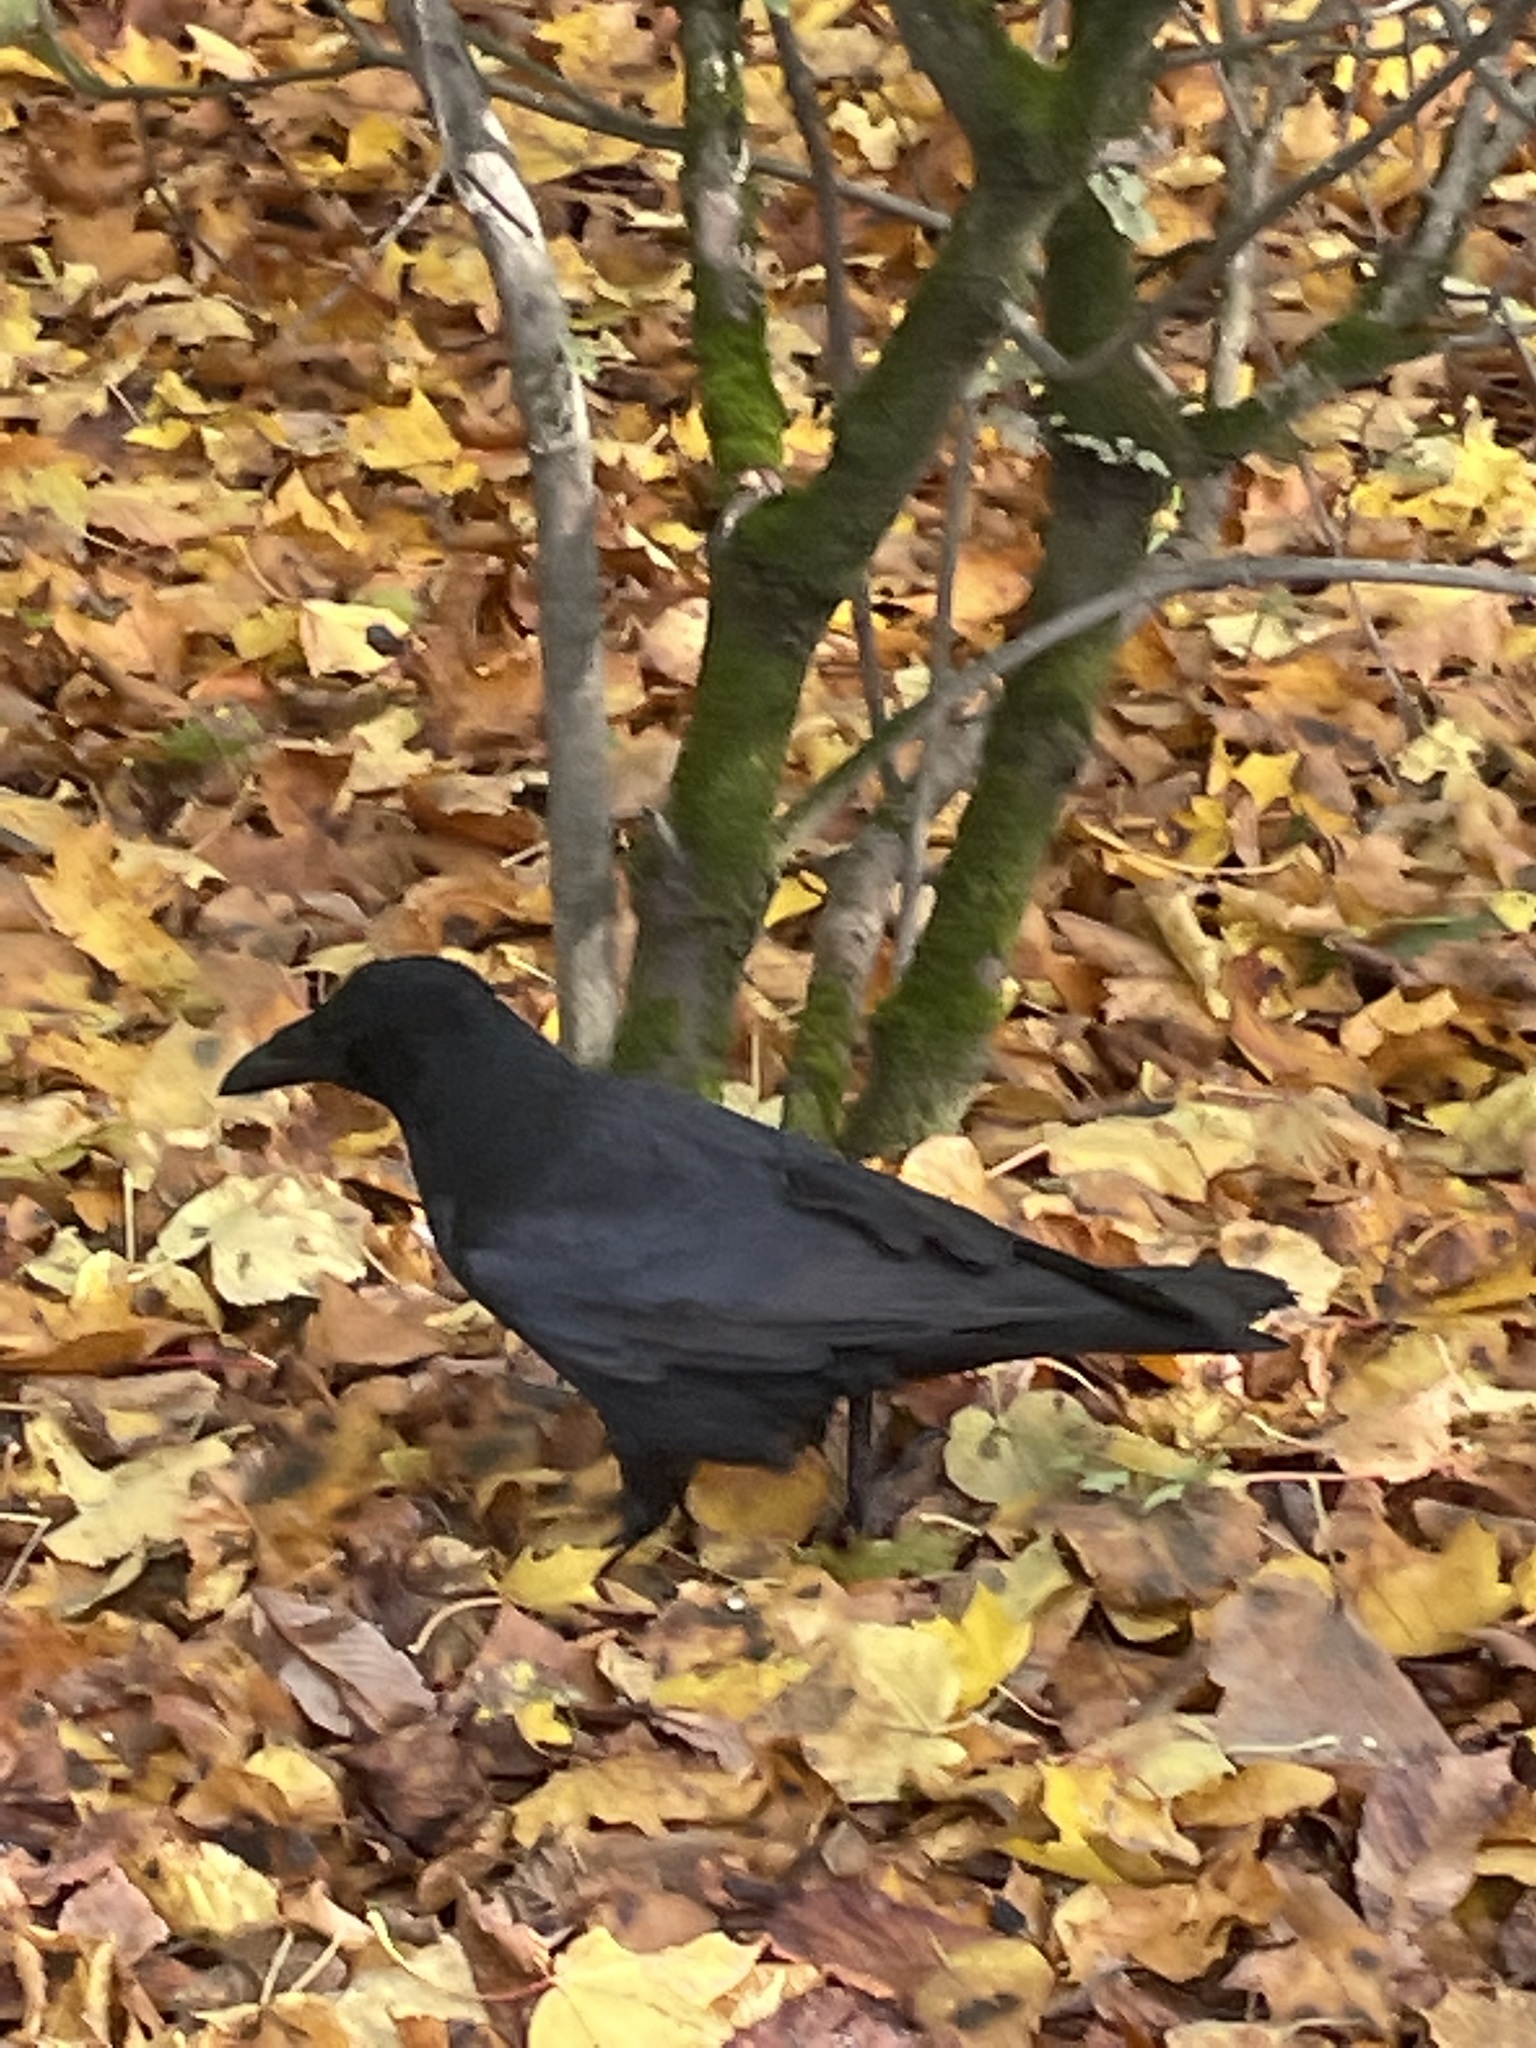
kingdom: Animalia
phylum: Chordata
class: Aves
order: Passeriformes
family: Corvidae
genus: Corvus
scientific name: Corvus corone
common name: Carrion crow
